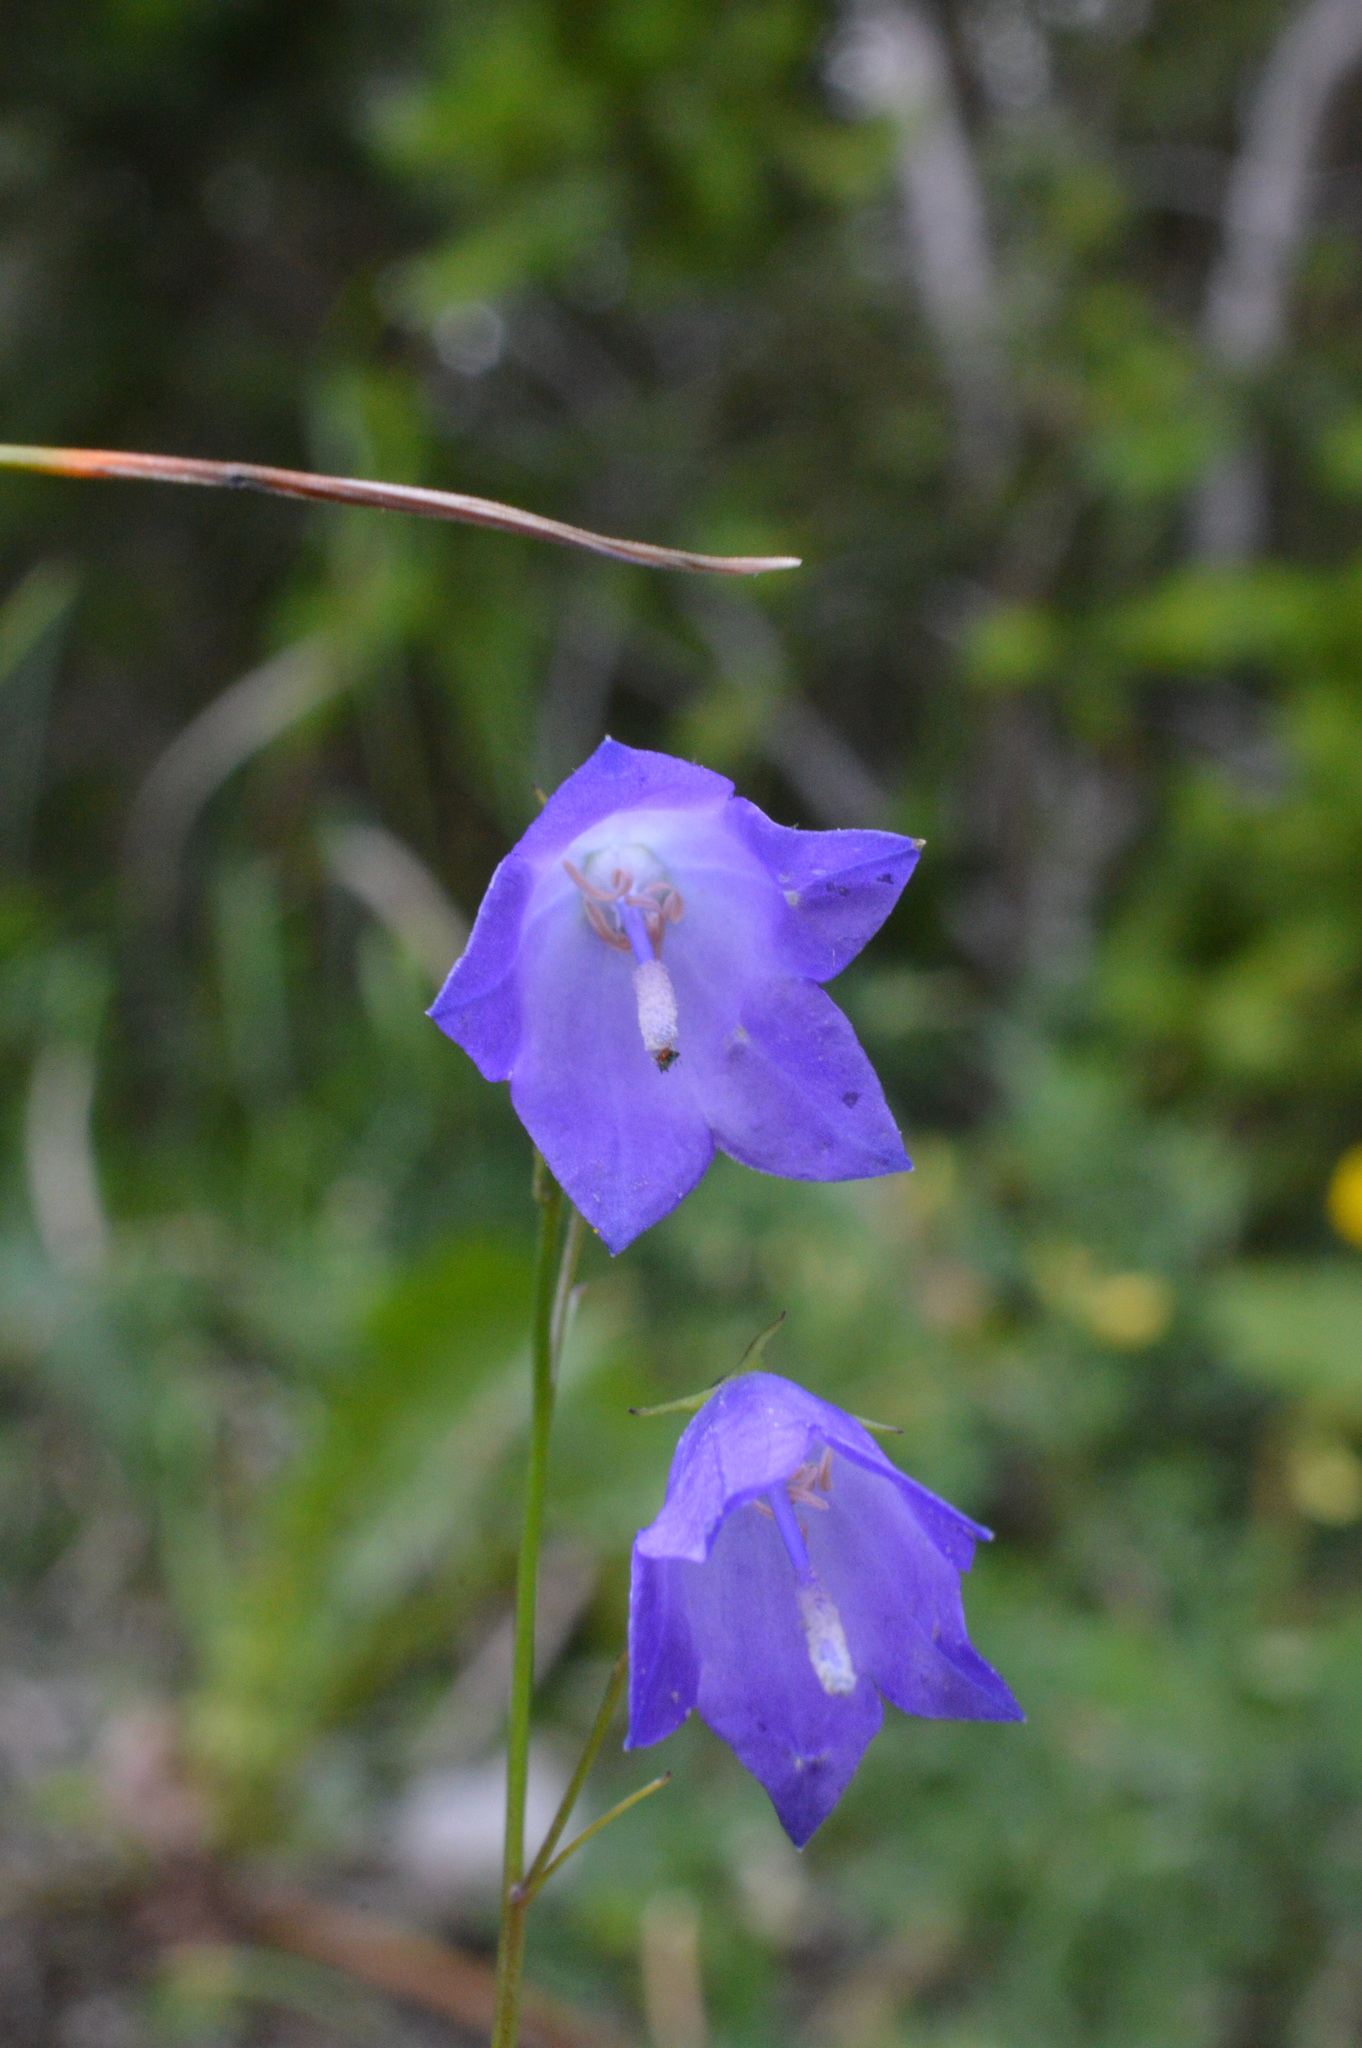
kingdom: Plantae
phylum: Tracheophyta
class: Magnoliopsida
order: Asterales
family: Campanulaceae
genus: Campanula
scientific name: Campanula rotundifolia
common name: Harebell
